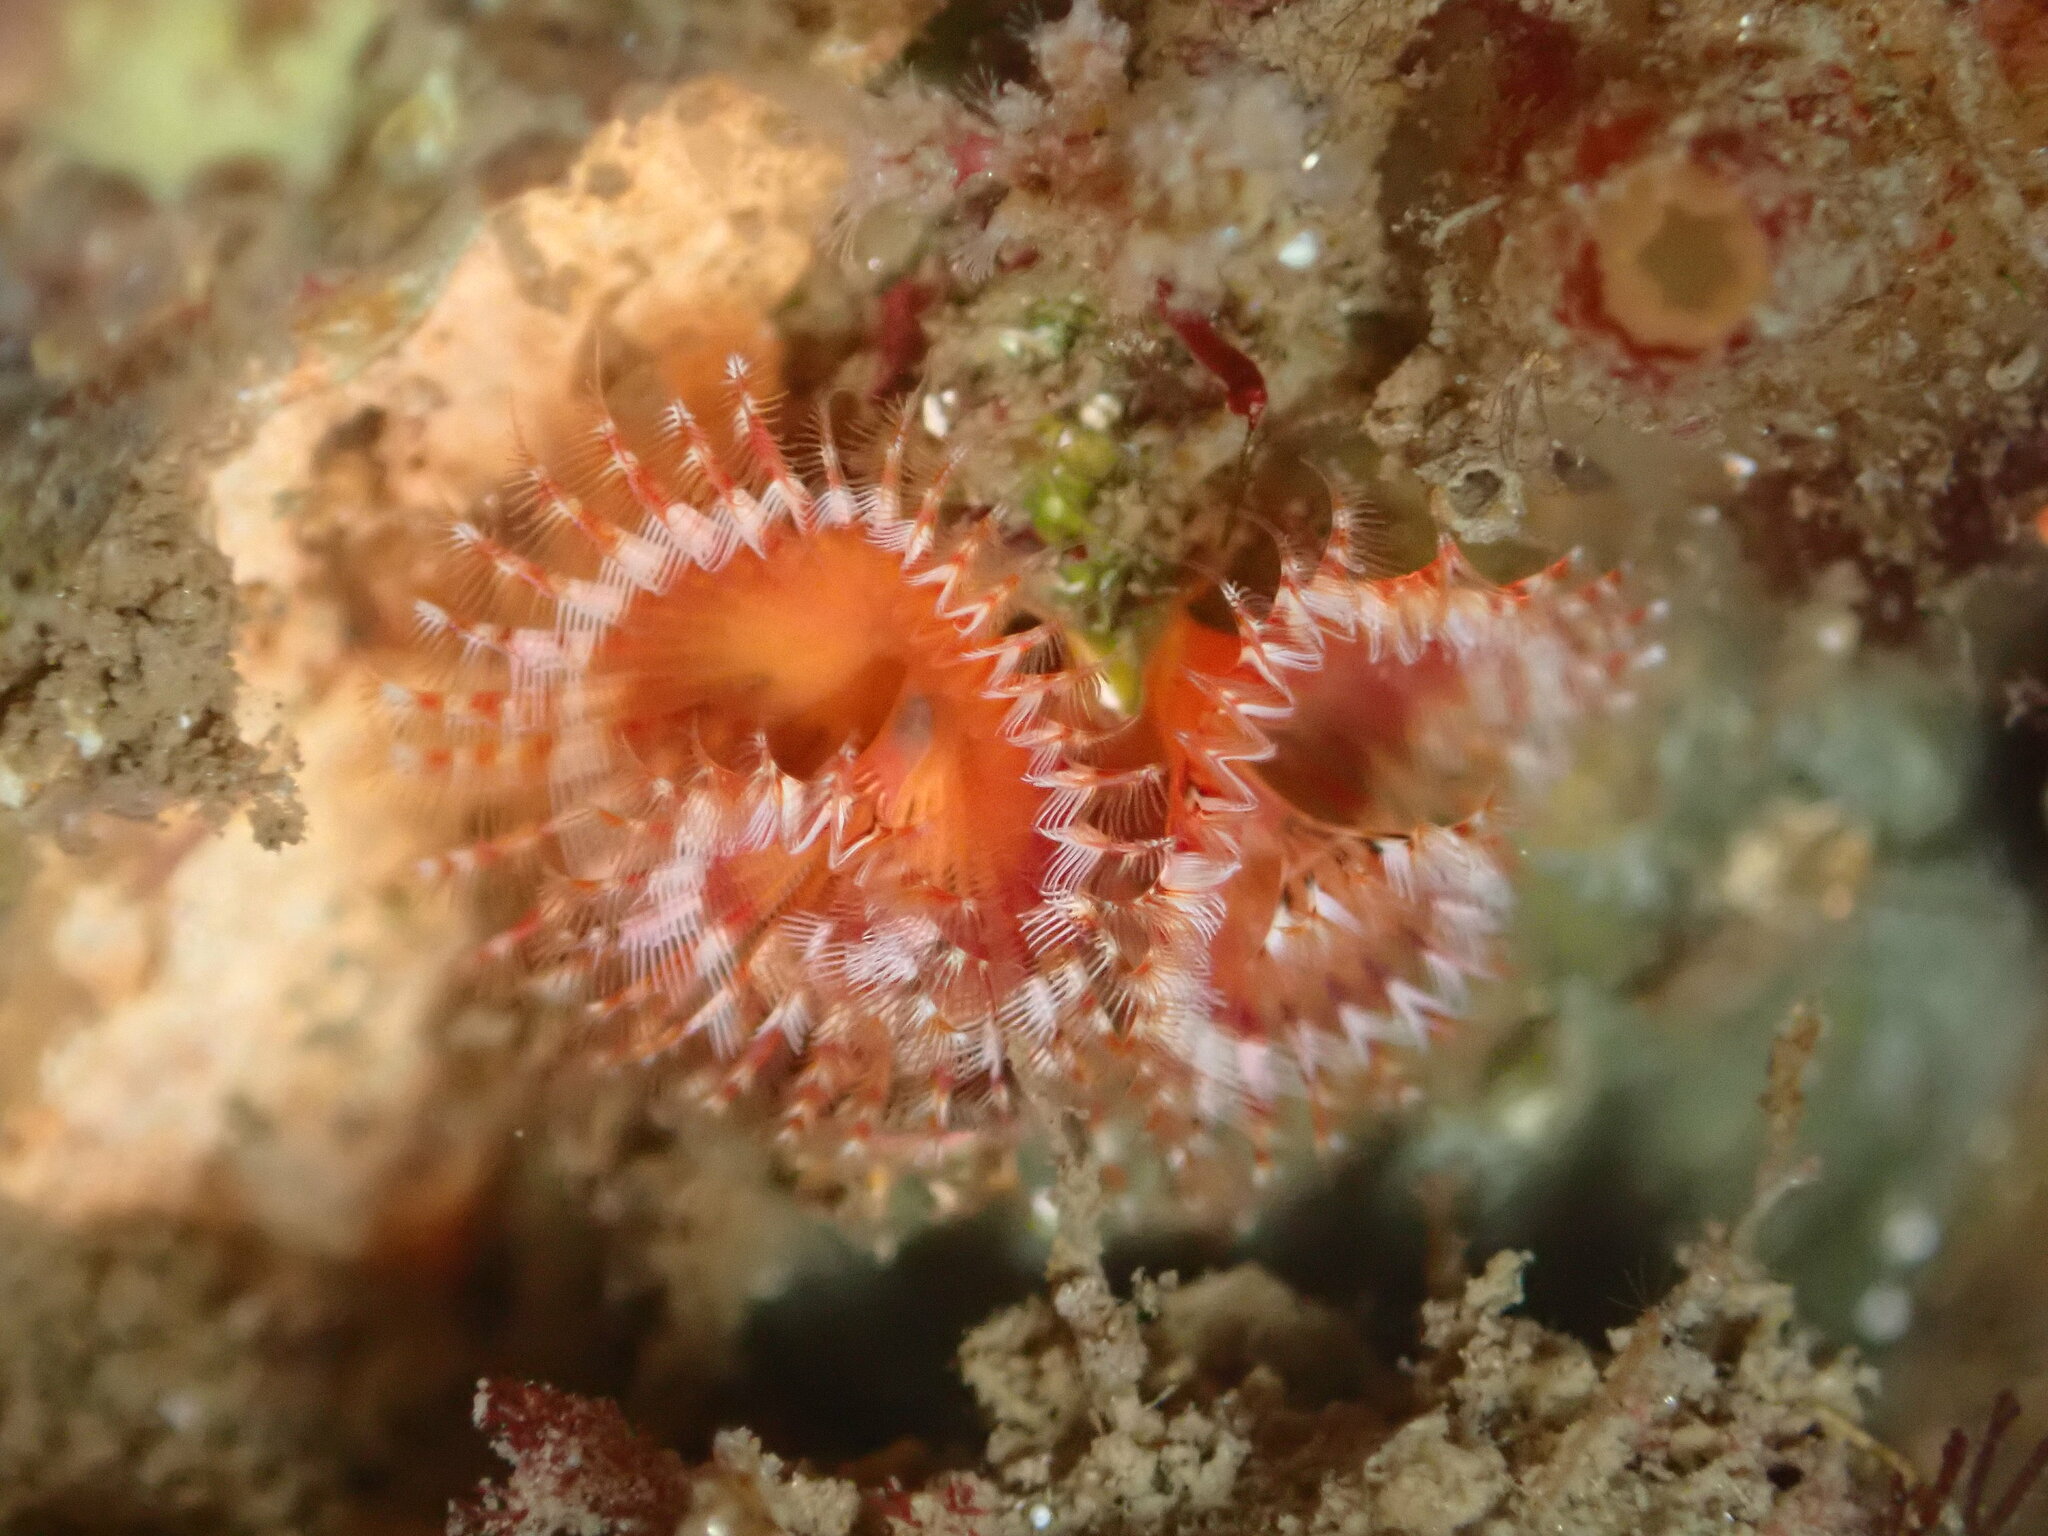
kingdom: Animalia
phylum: Annelida
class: Polychaeta
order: Sabellida
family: Serpulidae
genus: Spirobranchus
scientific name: Spirobranchus spinosus
